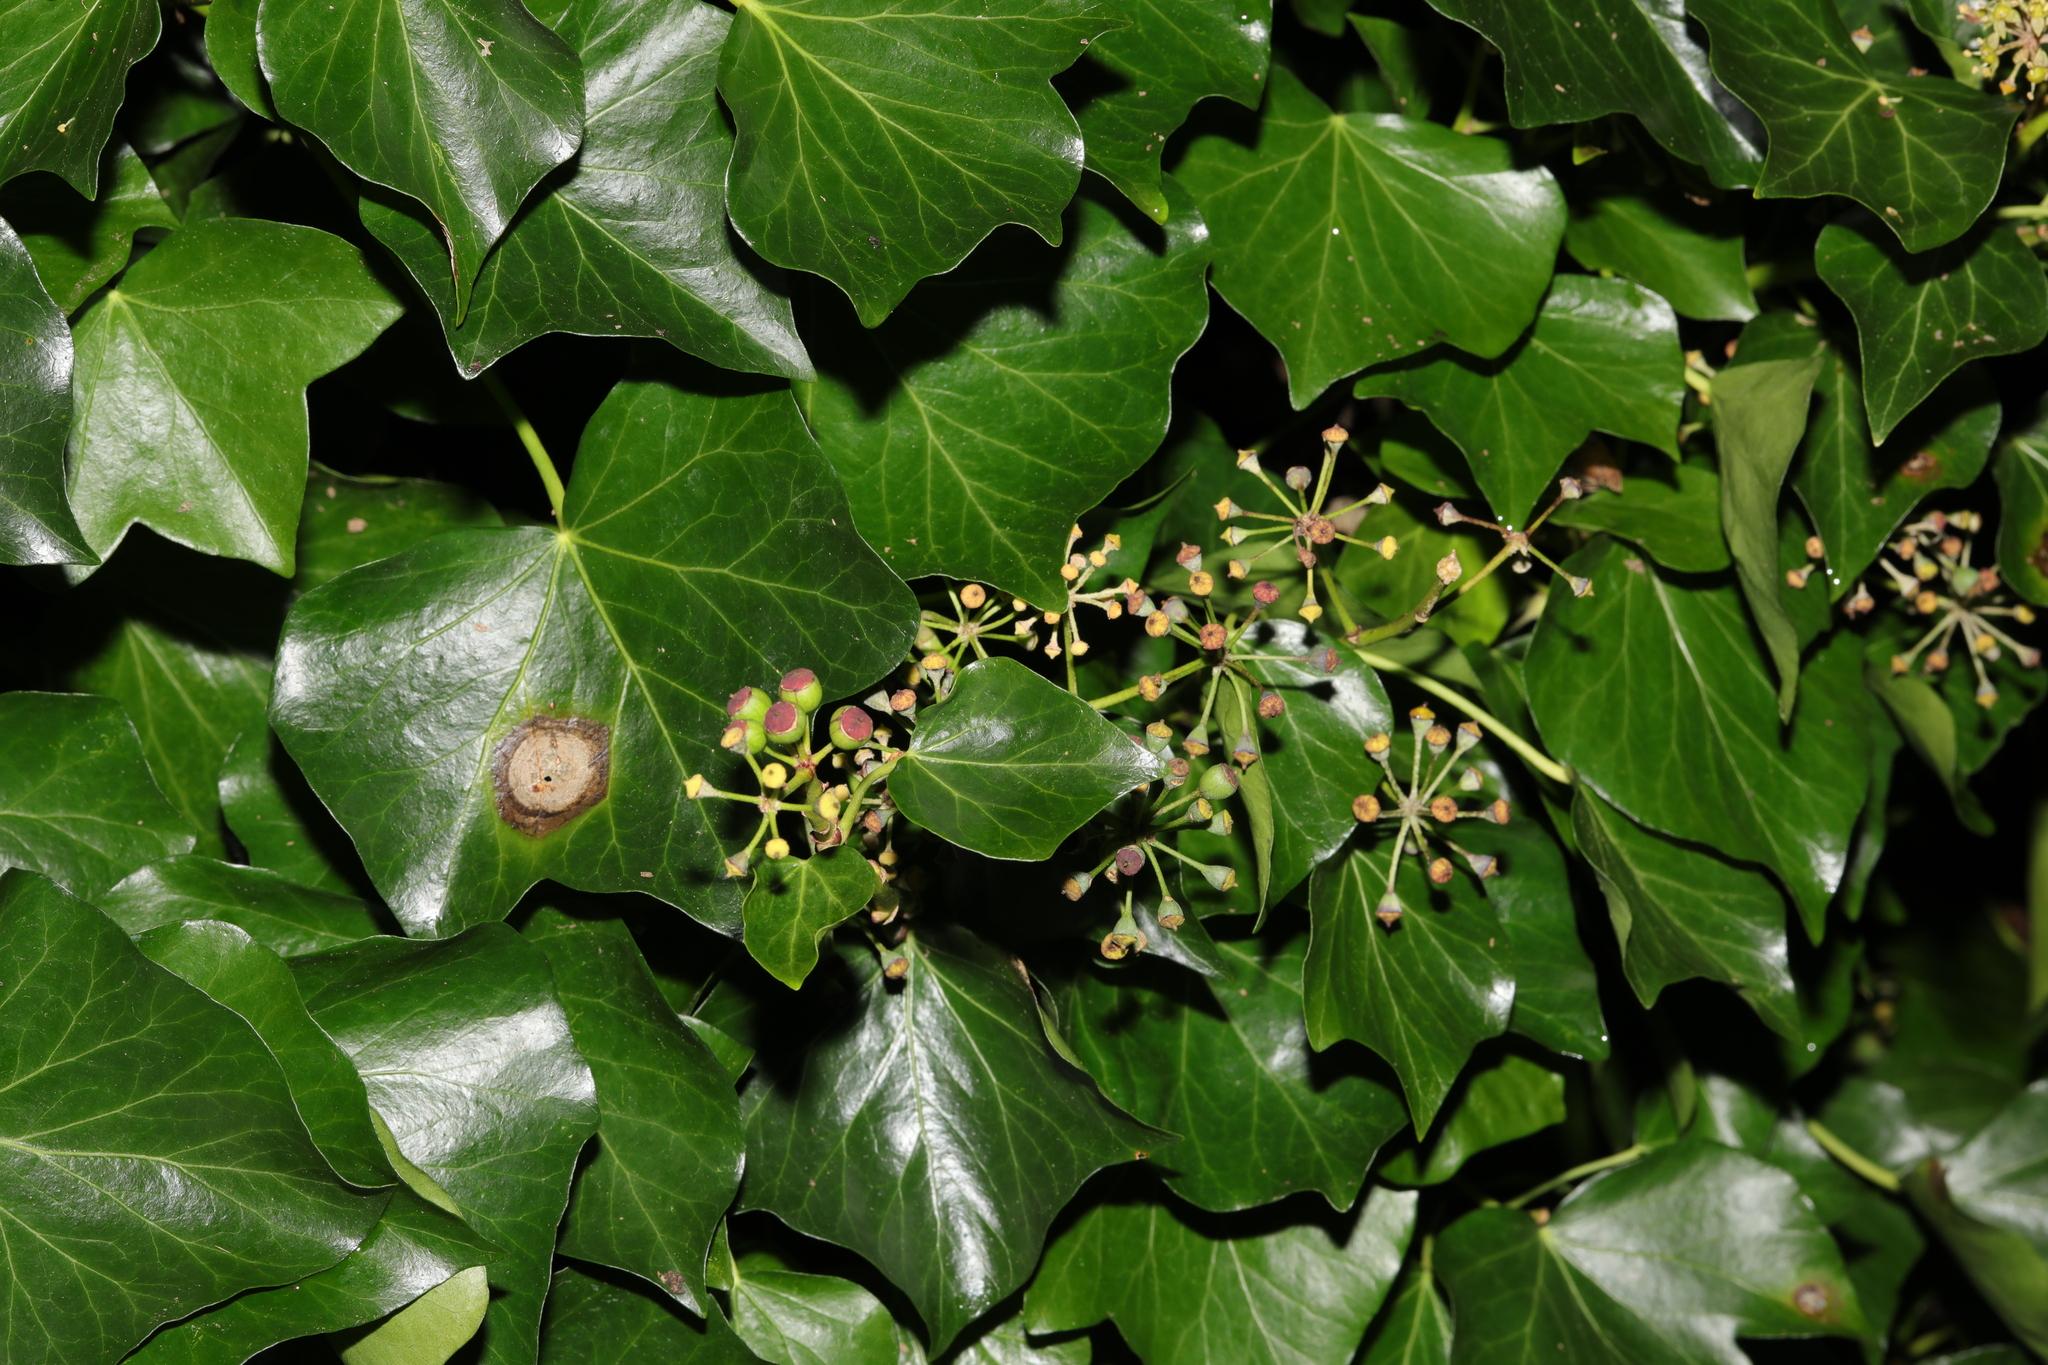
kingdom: Plantae
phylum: Tracheophyta
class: Magnoliopsida
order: Apiales
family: Araliaceae
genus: Hedera
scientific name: Hedera helix
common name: Ivy
